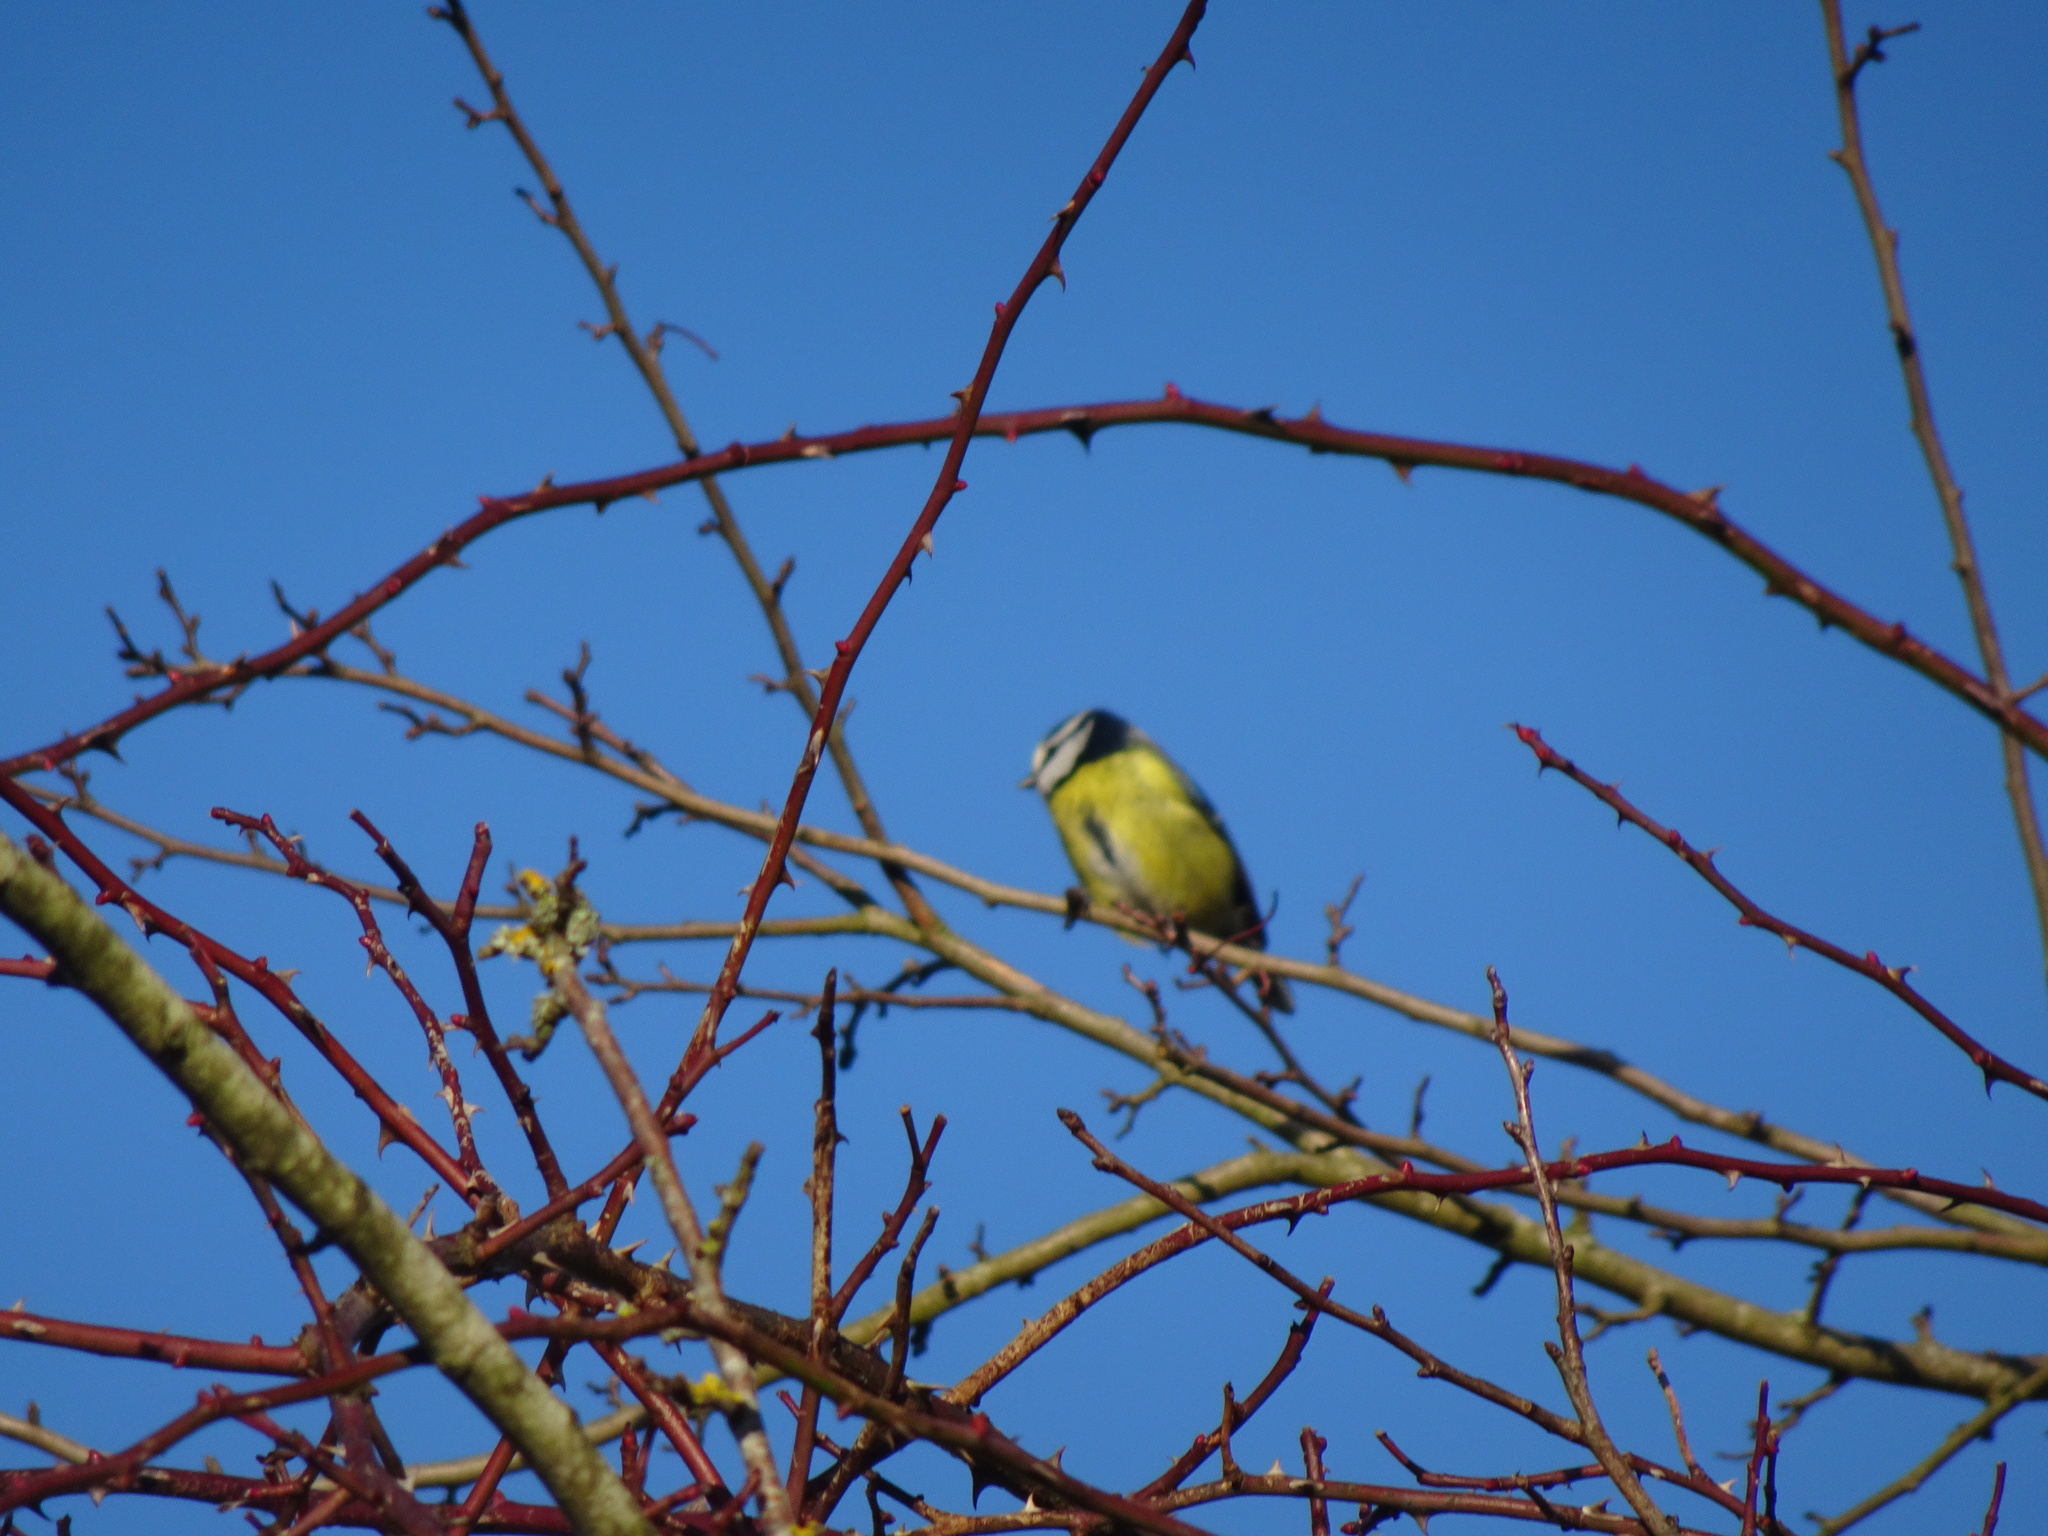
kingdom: Animalia
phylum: Chordata
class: Aves
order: Passeriformes
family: Paridae
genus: Cyanistes
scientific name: Cyanistes caeruleus
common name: Eurasian blue tit
